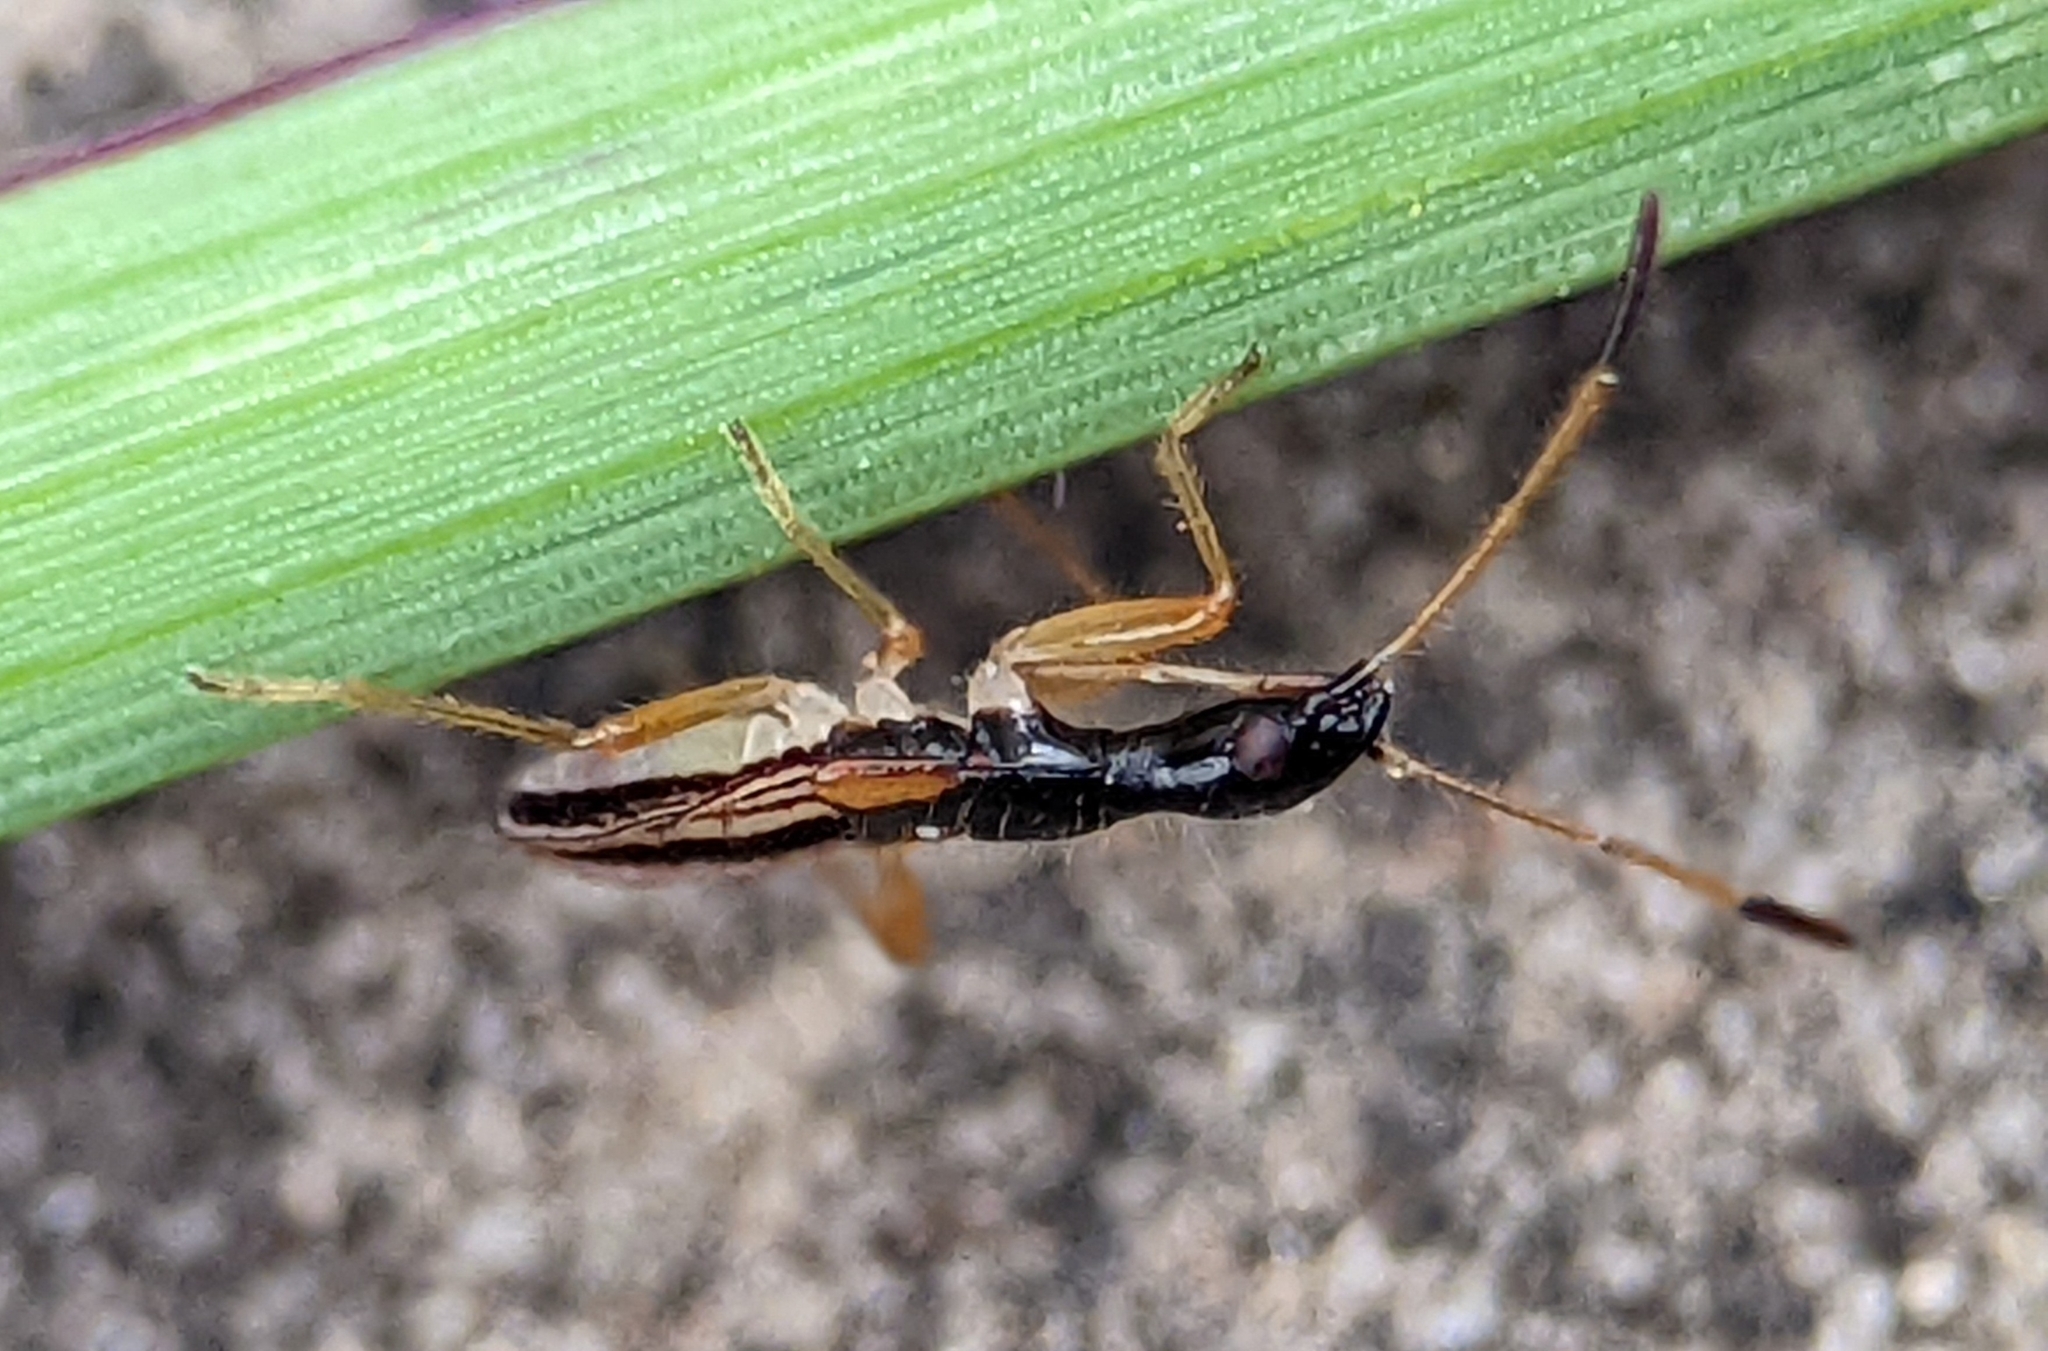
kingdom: Animalia
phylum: Arthropoda
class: Insecta
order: Hemiptera
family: Rhyparochromidae
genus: Myodocha
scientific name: Myodocha serripes
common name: Long-necked seed bug
